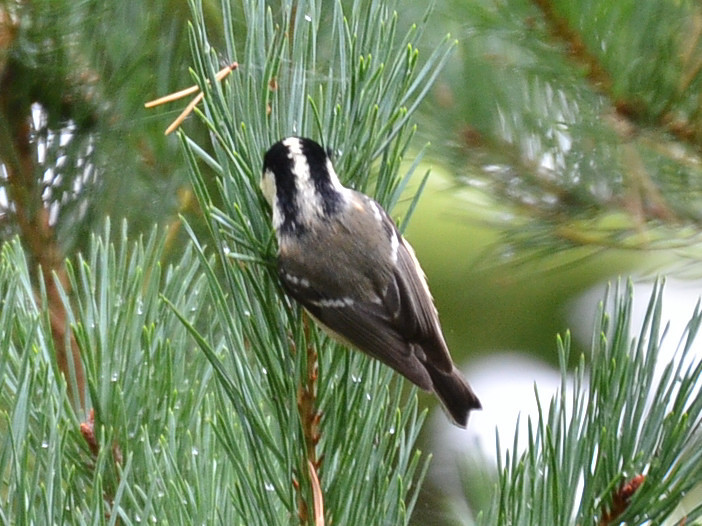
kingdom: Animalia
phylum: Chordata
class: Aves
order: Passeriformes
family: Paridae
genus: Periparus
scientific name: Periparus ater
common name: Coal tit
